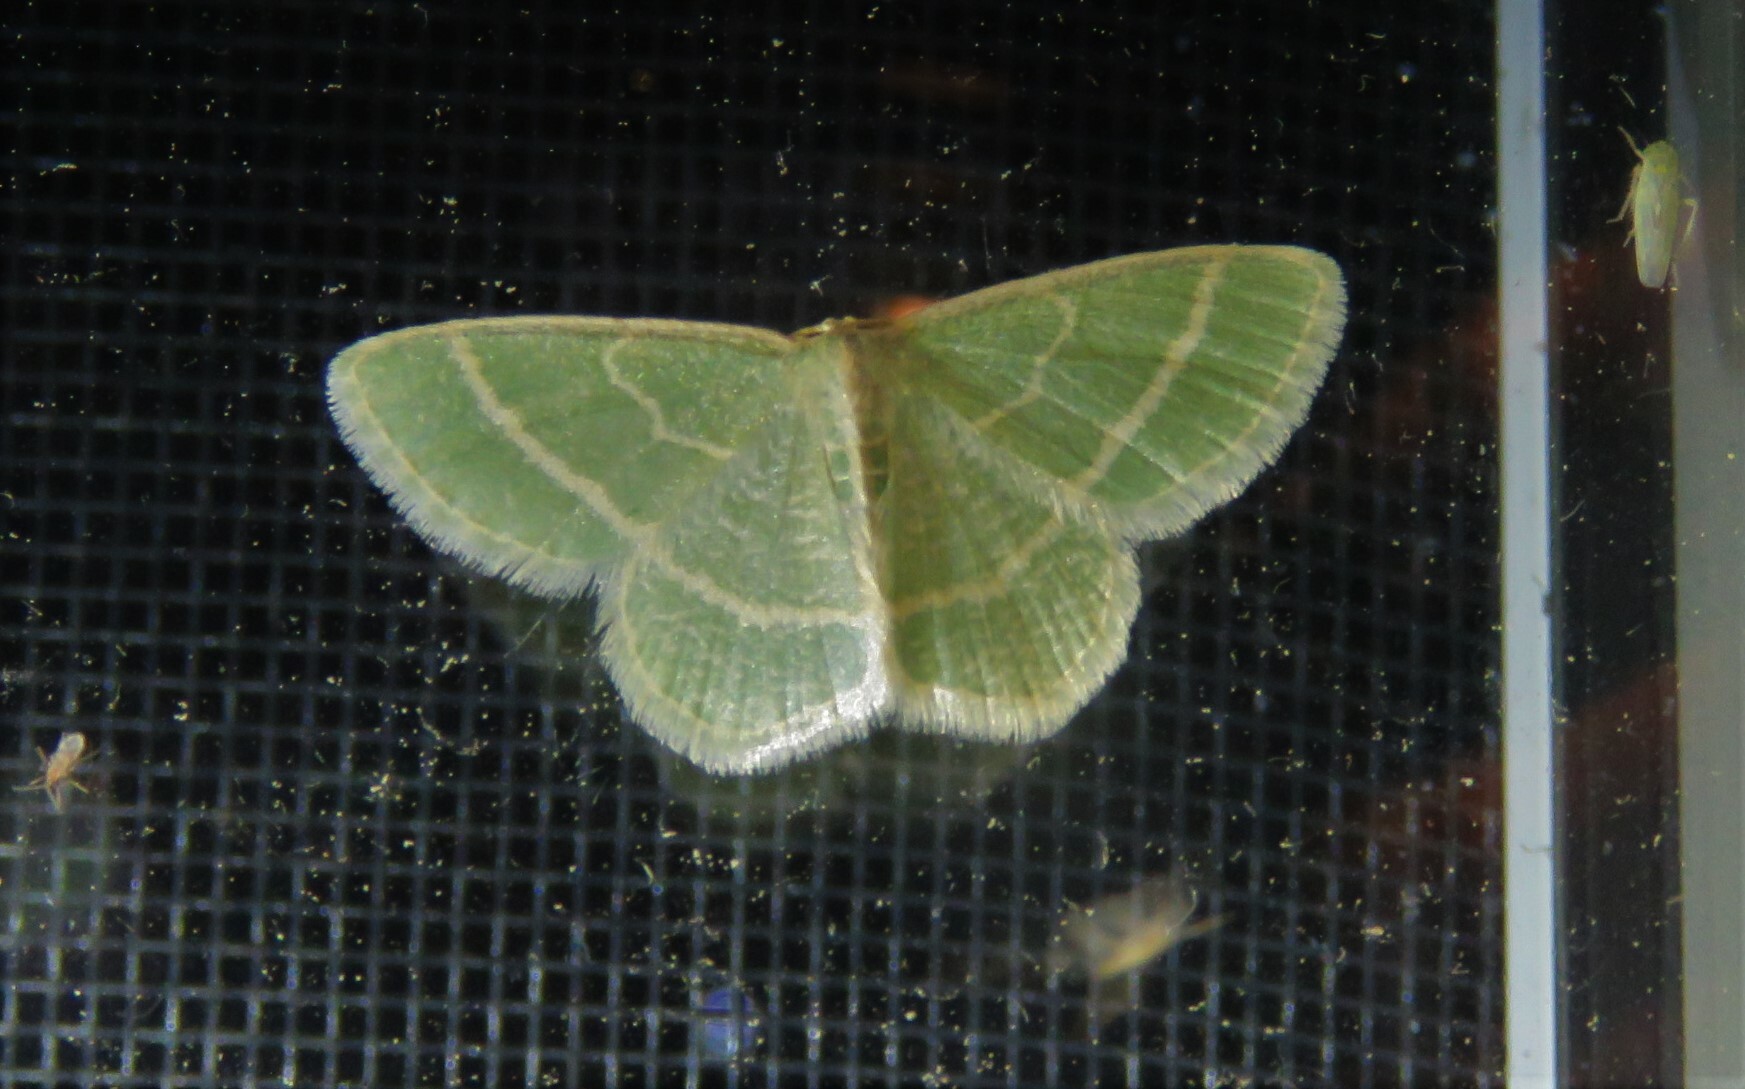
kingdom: Animalia
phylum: Arthropoda
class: Insecta
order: Lepidoptera
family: Geometridae
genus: Chlorochlamys
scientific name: Chlorochlamys chloroleucaria
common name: Blackberry looper
